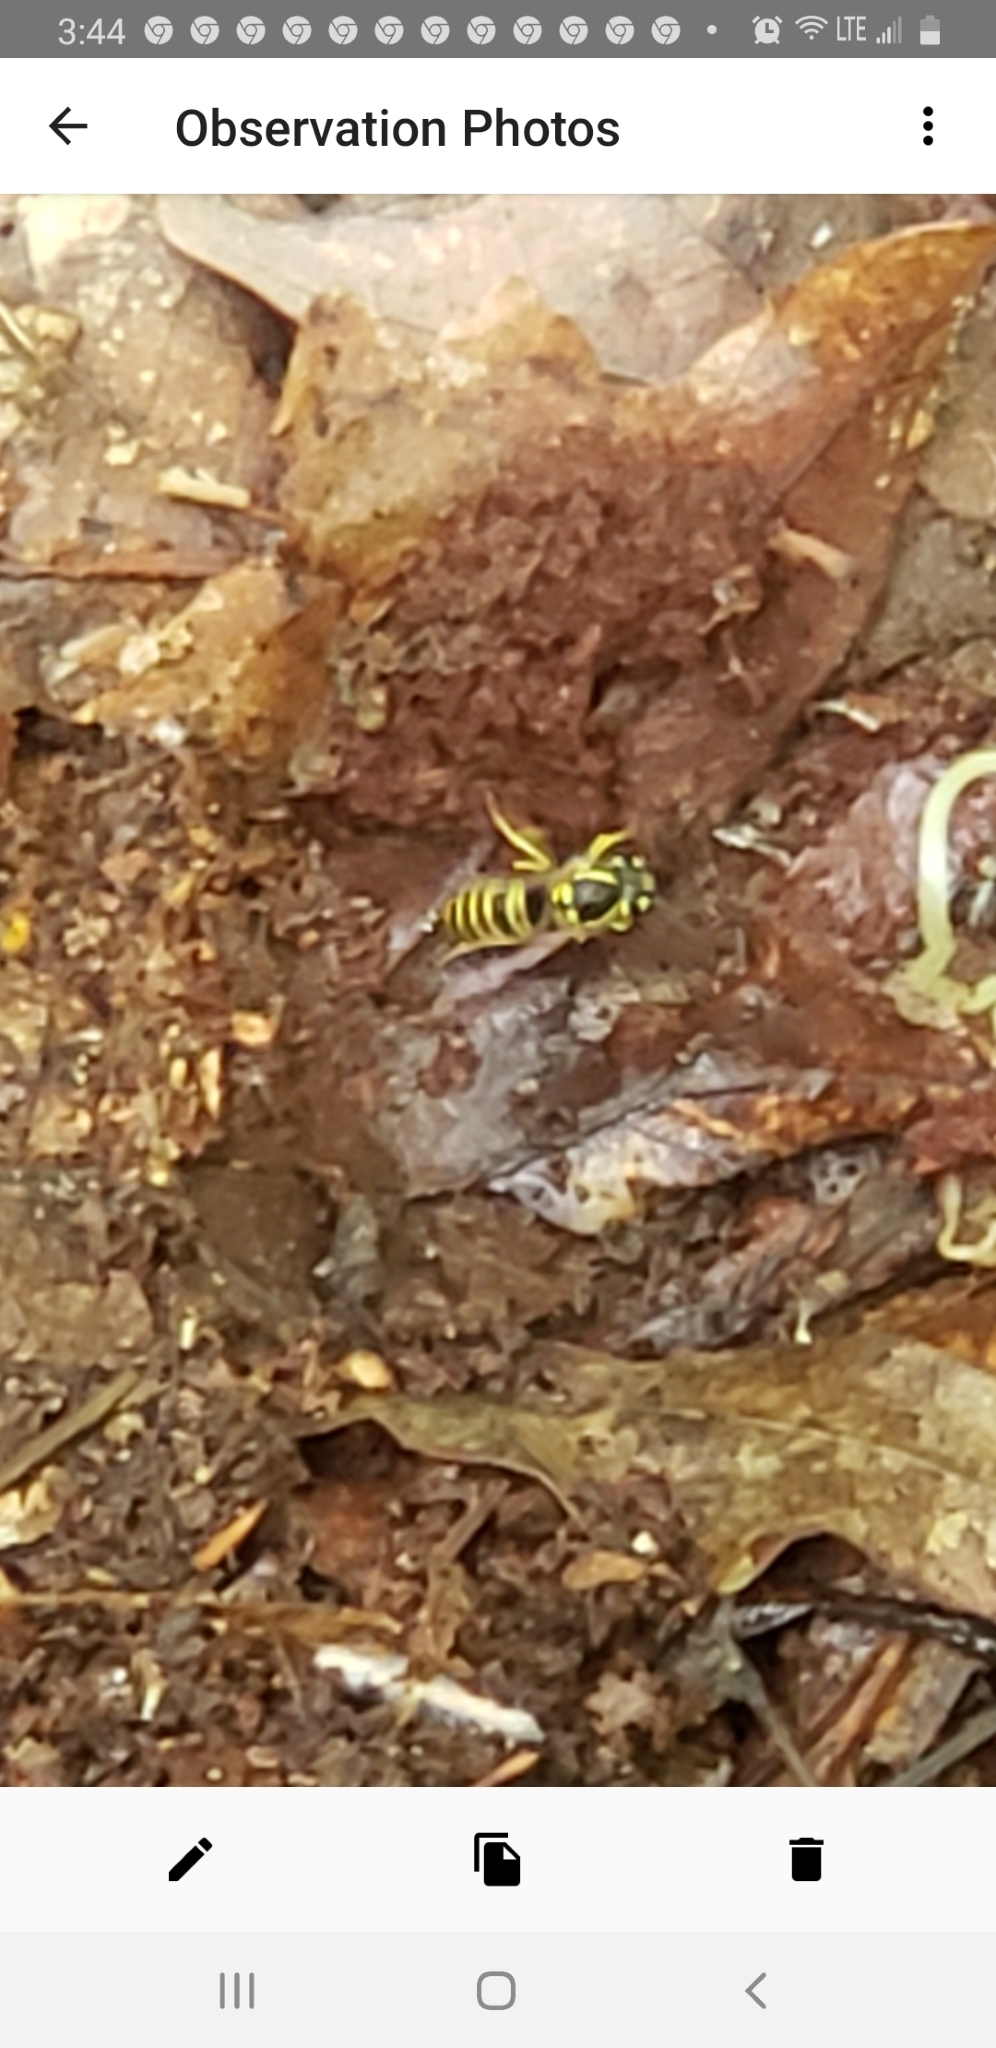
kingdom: Animalia
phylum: Arthropoda
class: Insecta
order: Hymenoptera
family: Vespidae
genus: Vespula
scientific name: Vespula maculifrons
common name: Eastern yellowjacket
